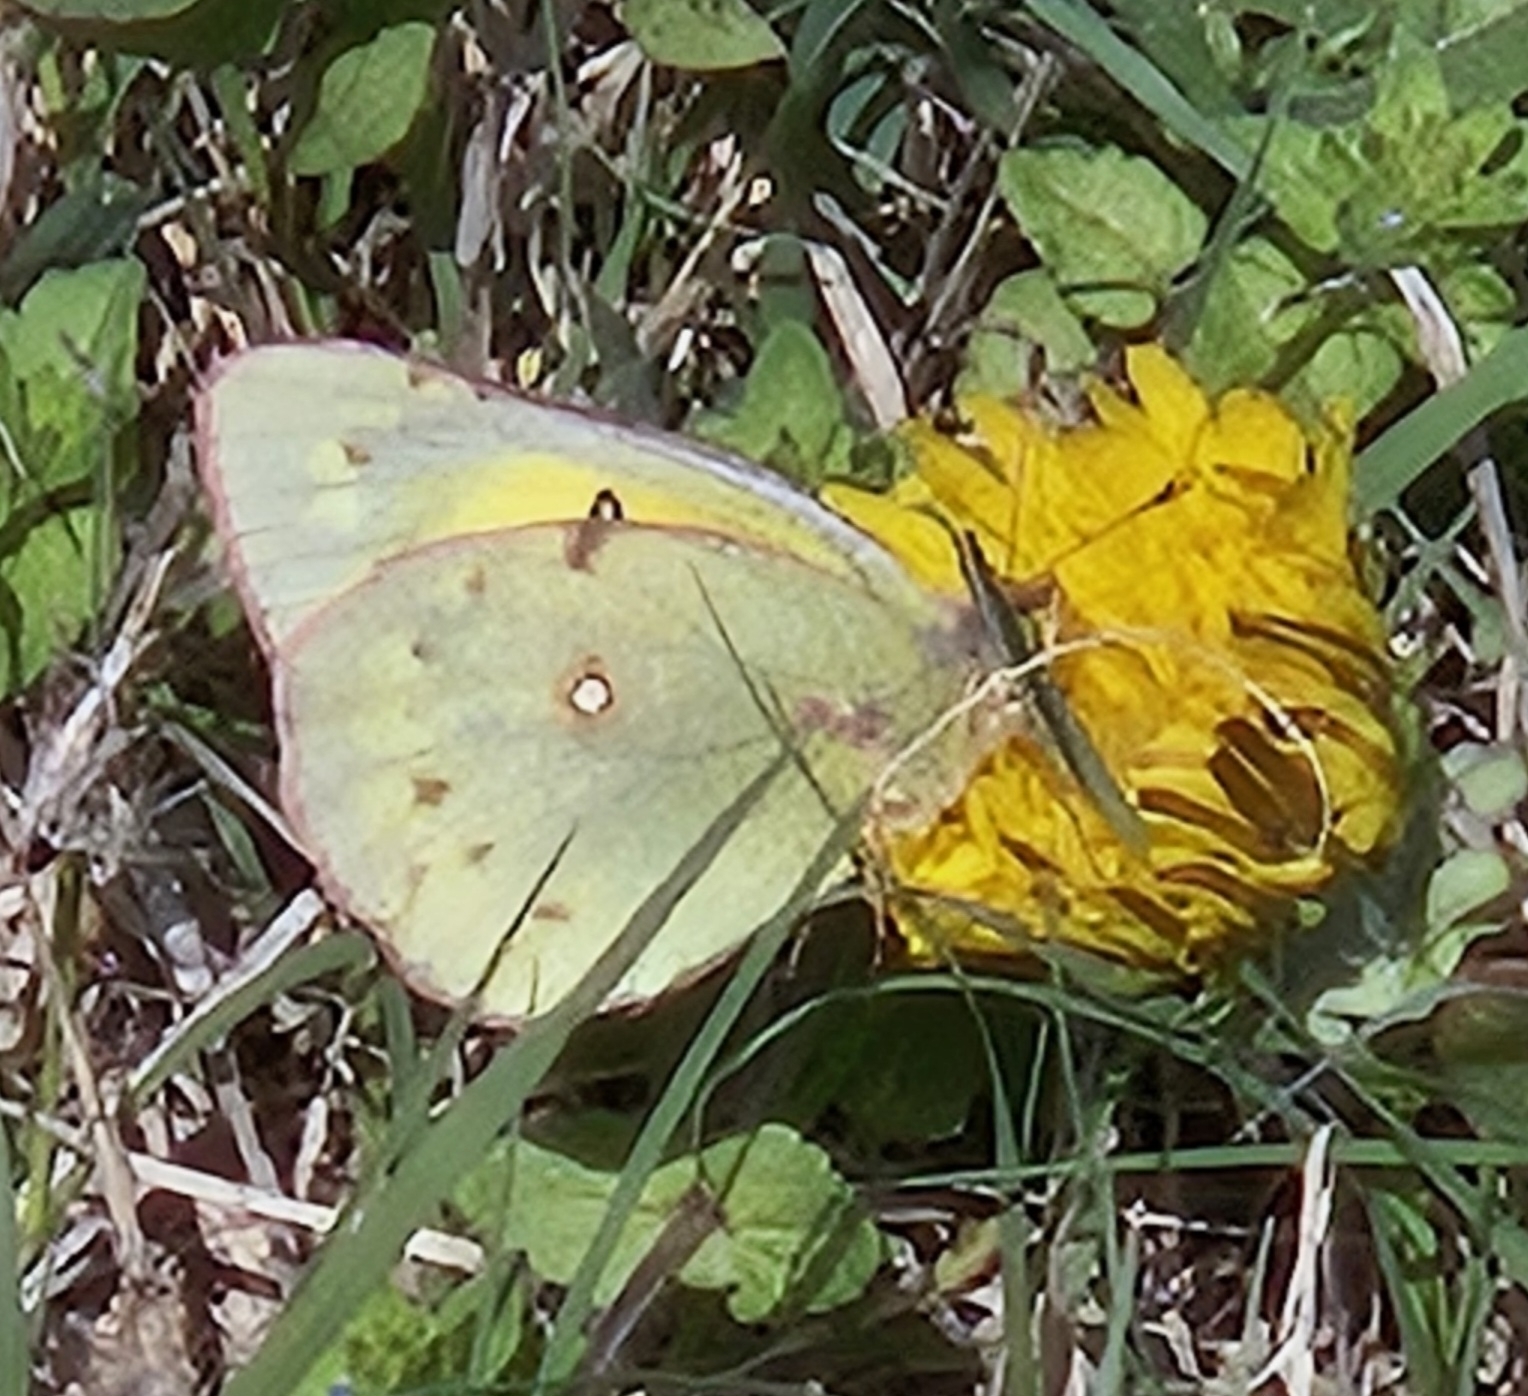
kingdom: Animalia
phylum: Arthropoda
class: Insecta
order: Lepidoptera
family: Pieridae
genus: Colias
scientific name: Colias eurytheme
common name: Alfalfa butterfly
